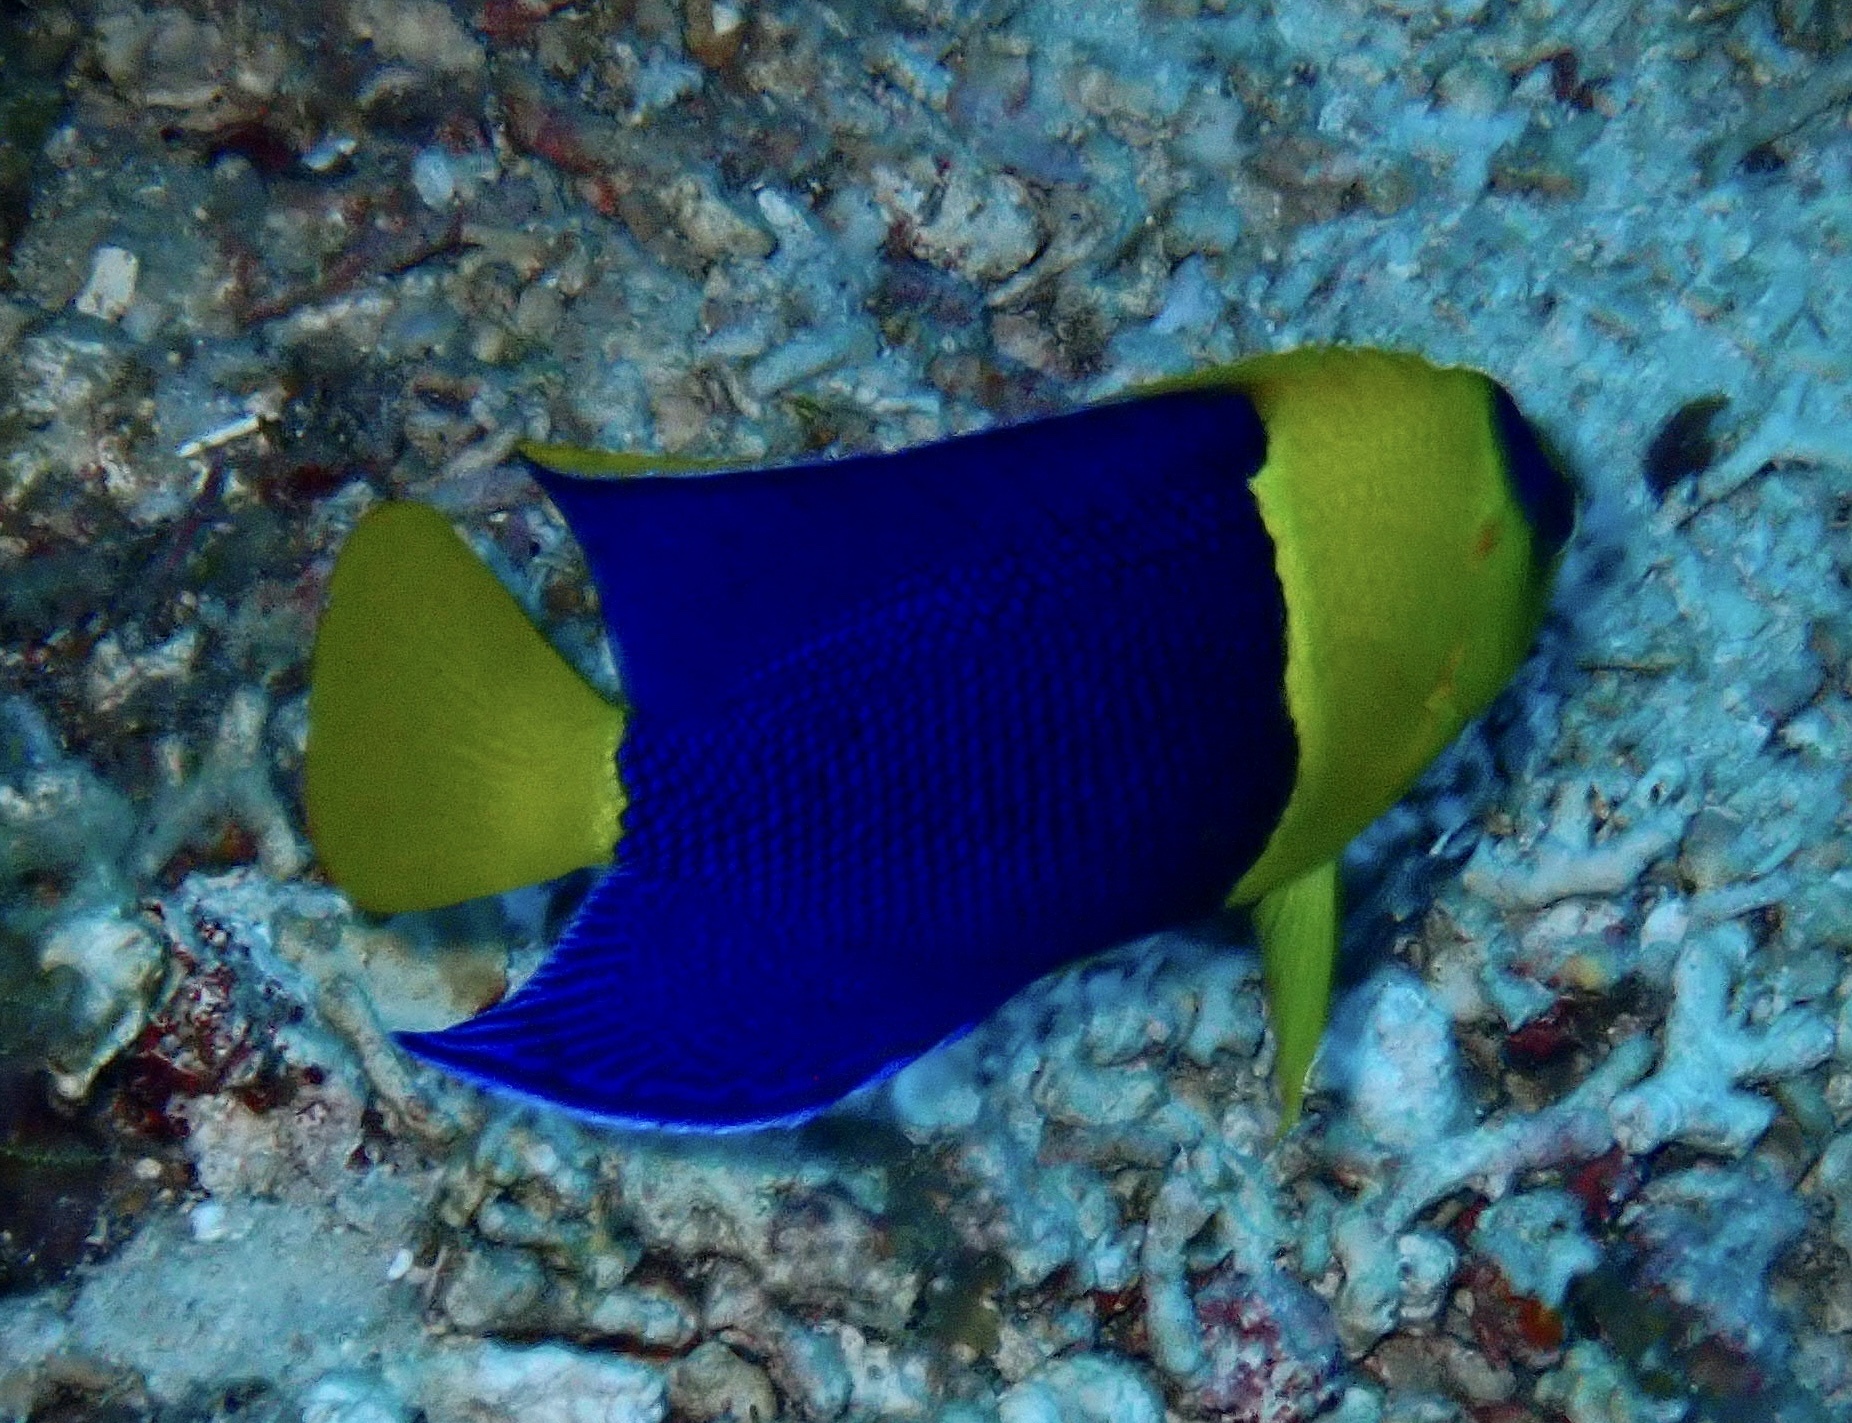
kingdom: Animalia
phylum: Chordata
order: Perciformes
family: Pomacanthidae
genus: Centropyge
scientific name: Centropyge bicolor
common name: Bicolor angelfish
